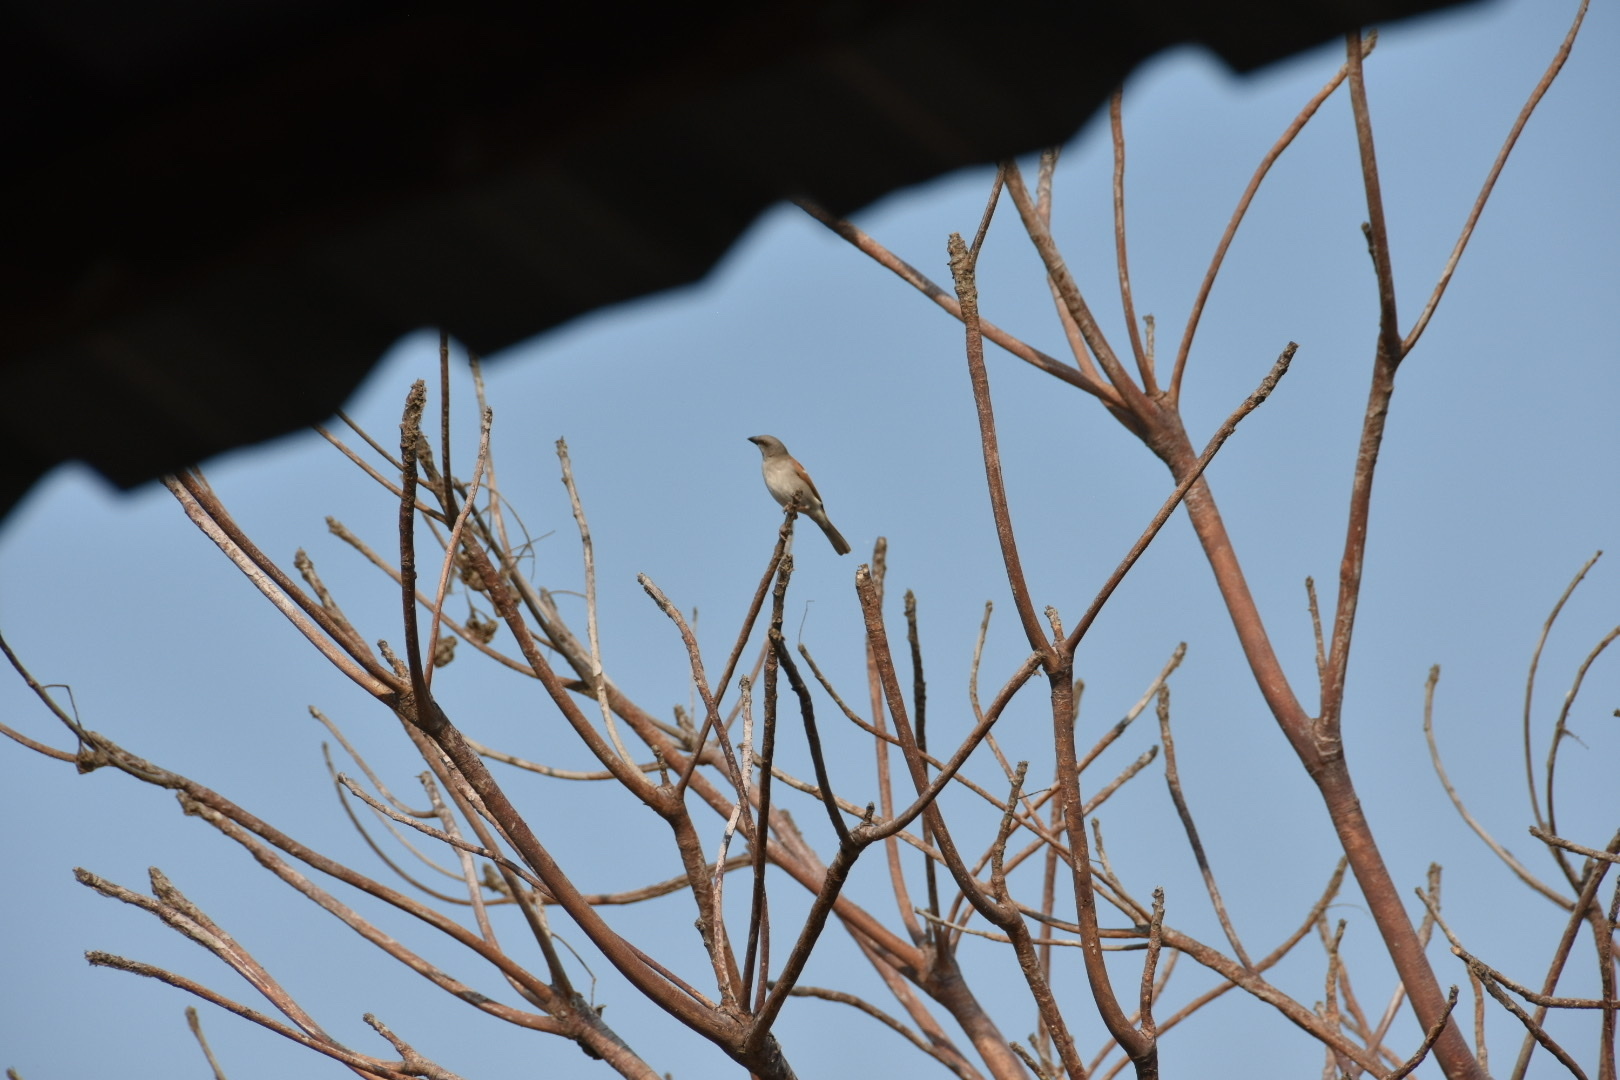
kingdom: Animalia
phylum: Chordata
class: Aves
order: Passeriformes
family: Passeridae
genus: Passer
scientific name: Passer griseus
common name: Northern grey-headed sparrow
